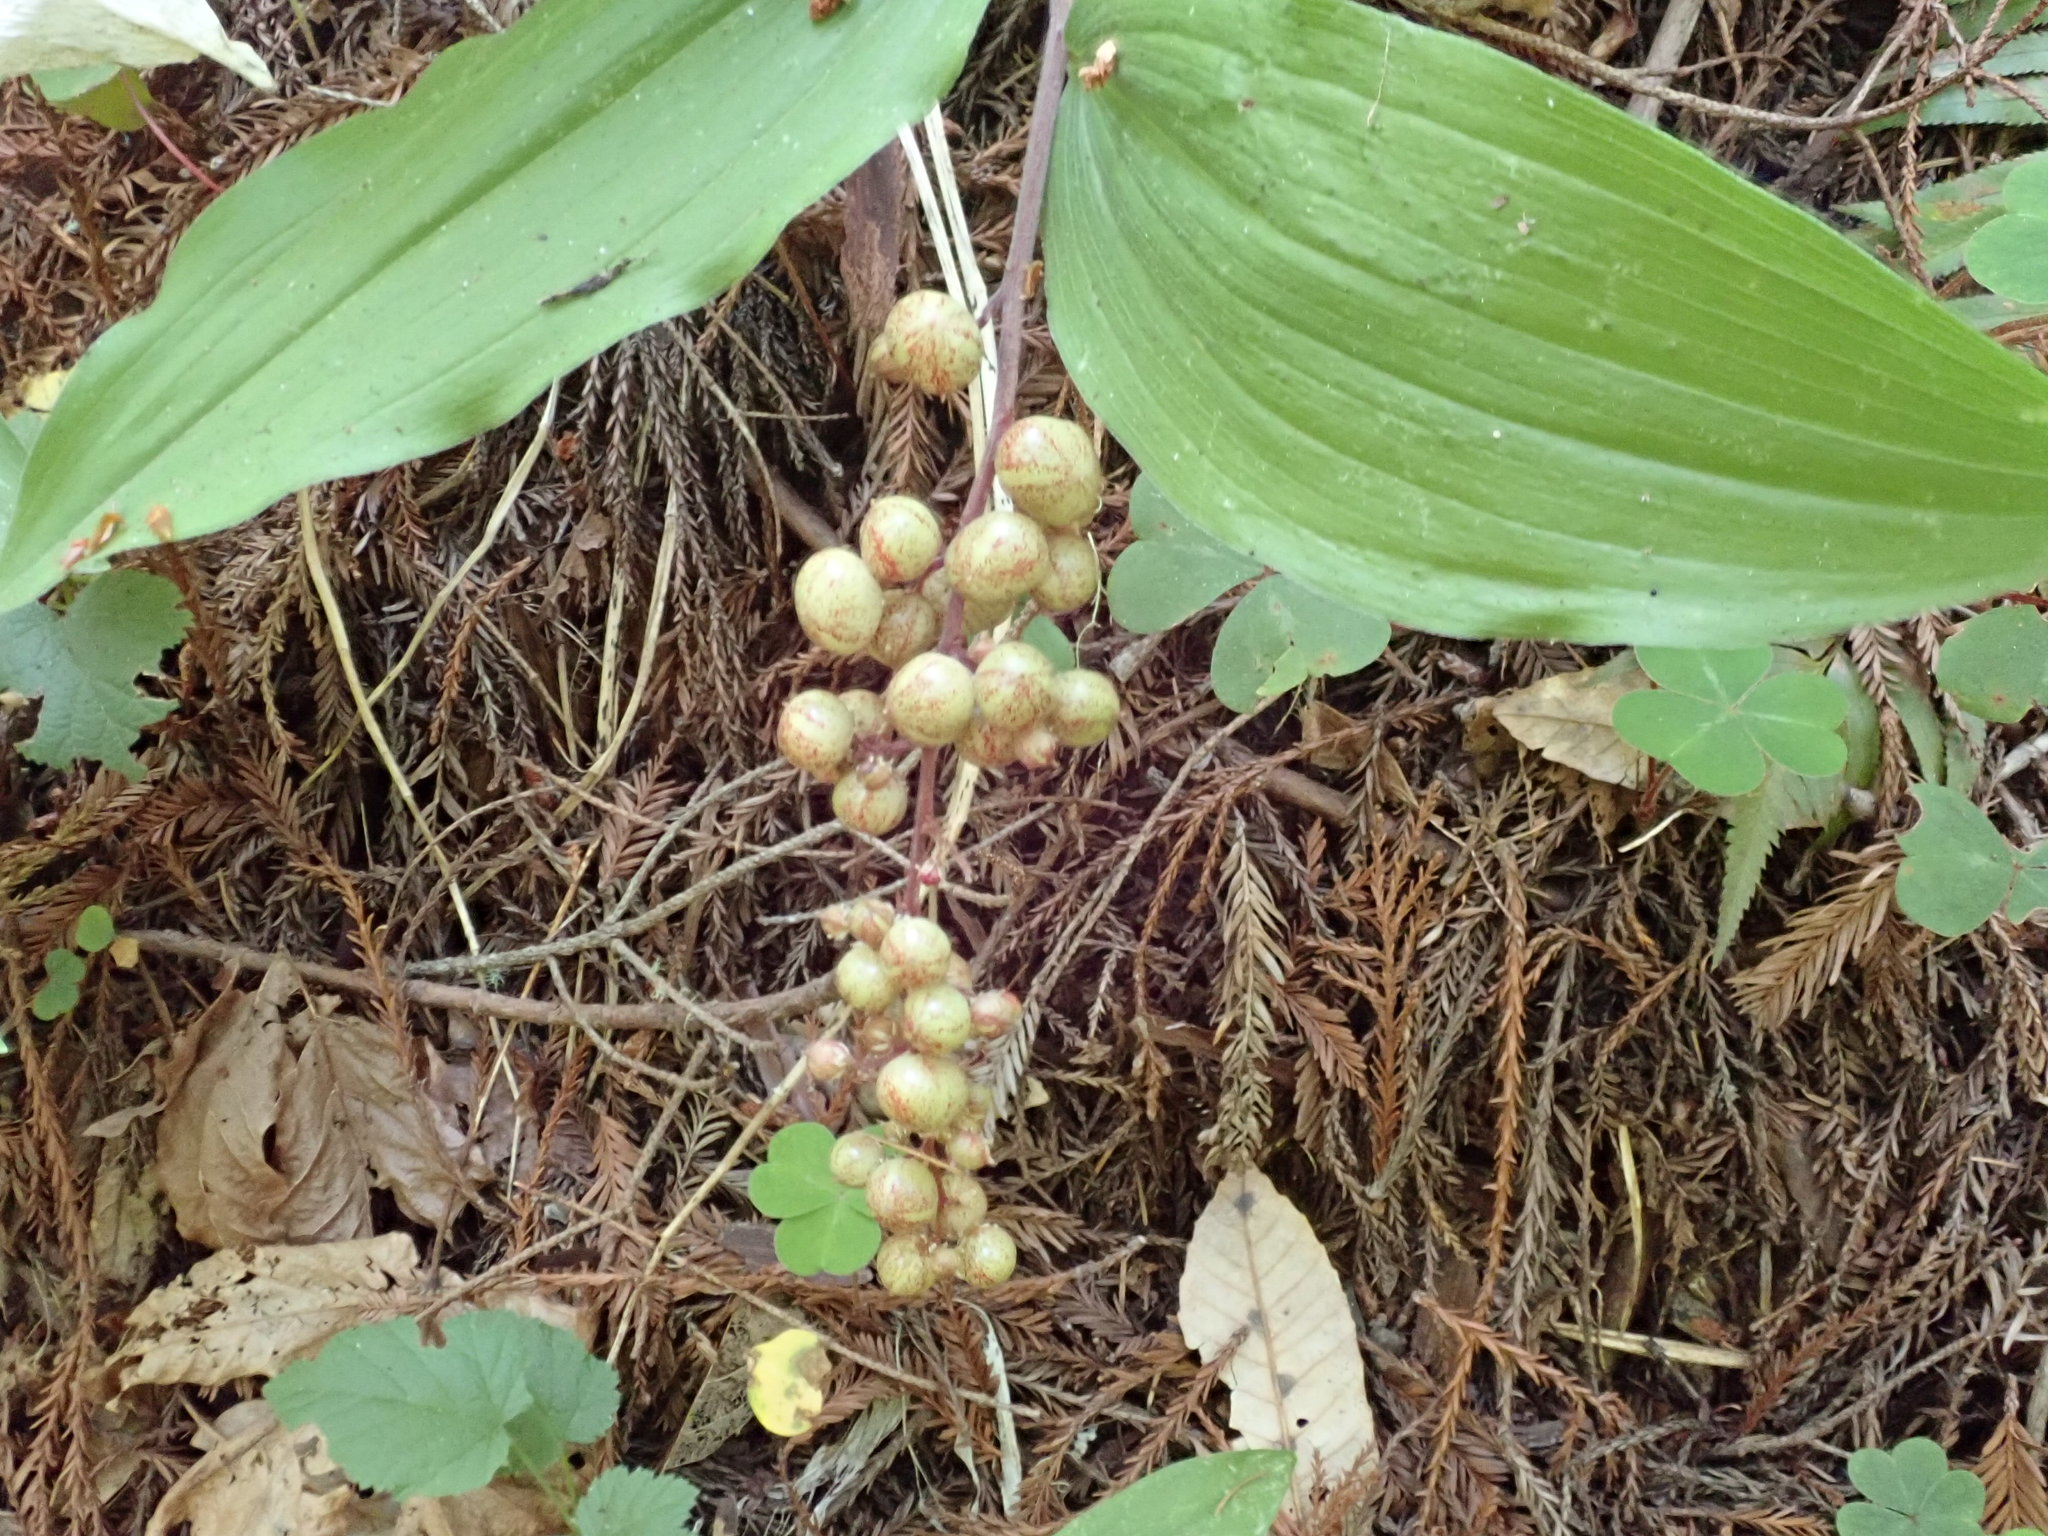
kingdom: Plantae
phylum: Tracheophyta
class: Liliopsida
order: Asparagales
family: Asparagaceae
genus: Maianthemum
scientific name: Maianthemum racemosum
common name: False spikenard
